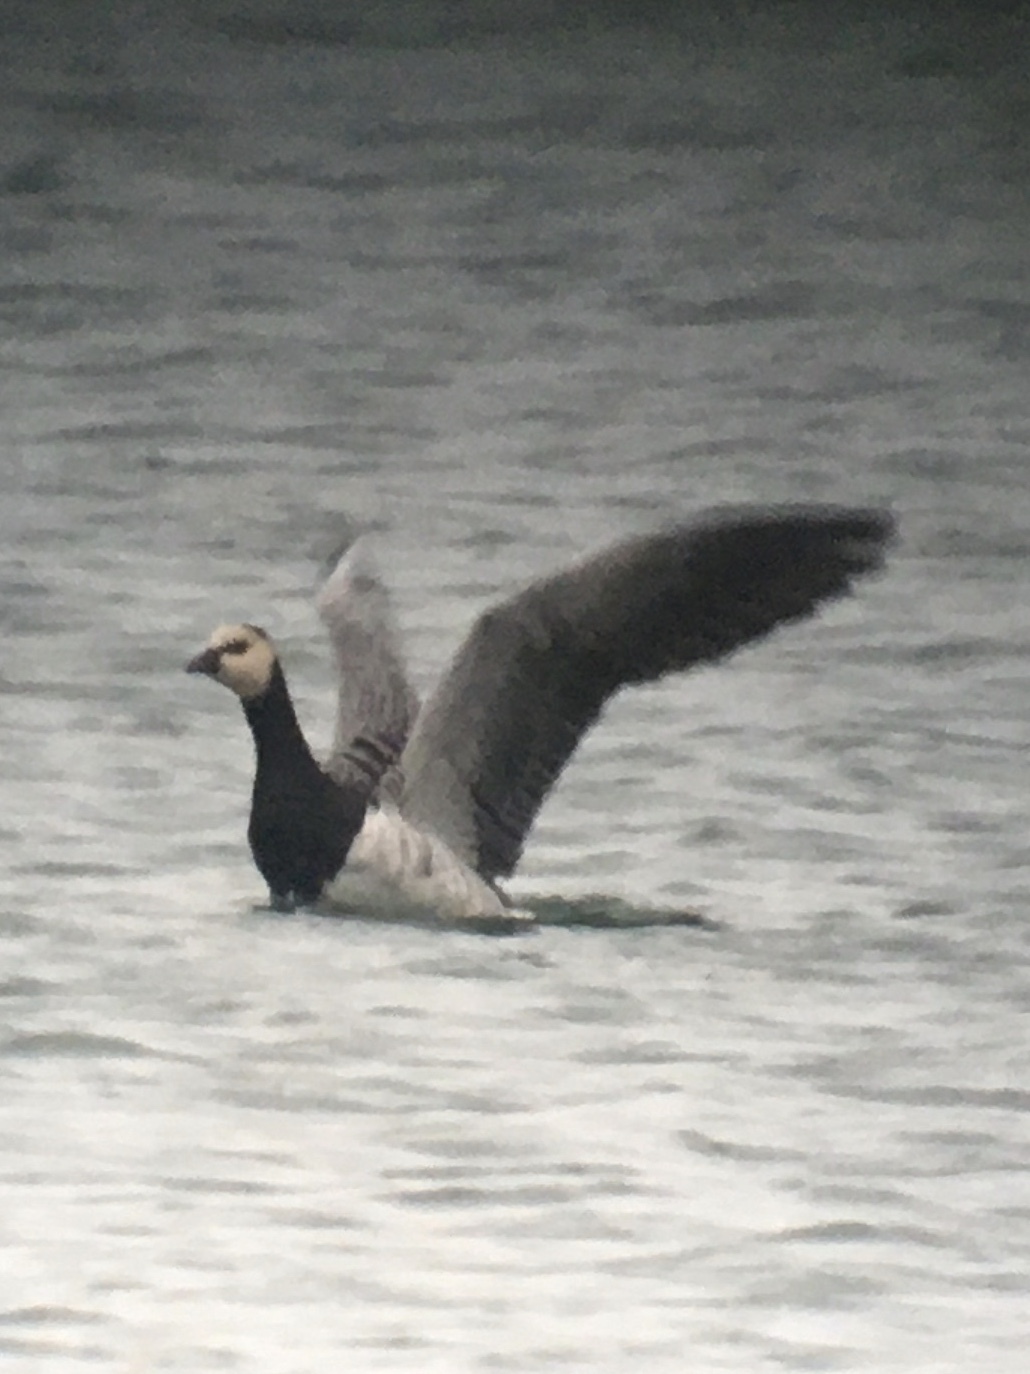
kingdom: Animalia
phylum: Chordata
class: Aves
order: Anseriformes
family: Anatidae
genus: Branta
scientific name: Branta leucopsis
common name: Barnacle goose
